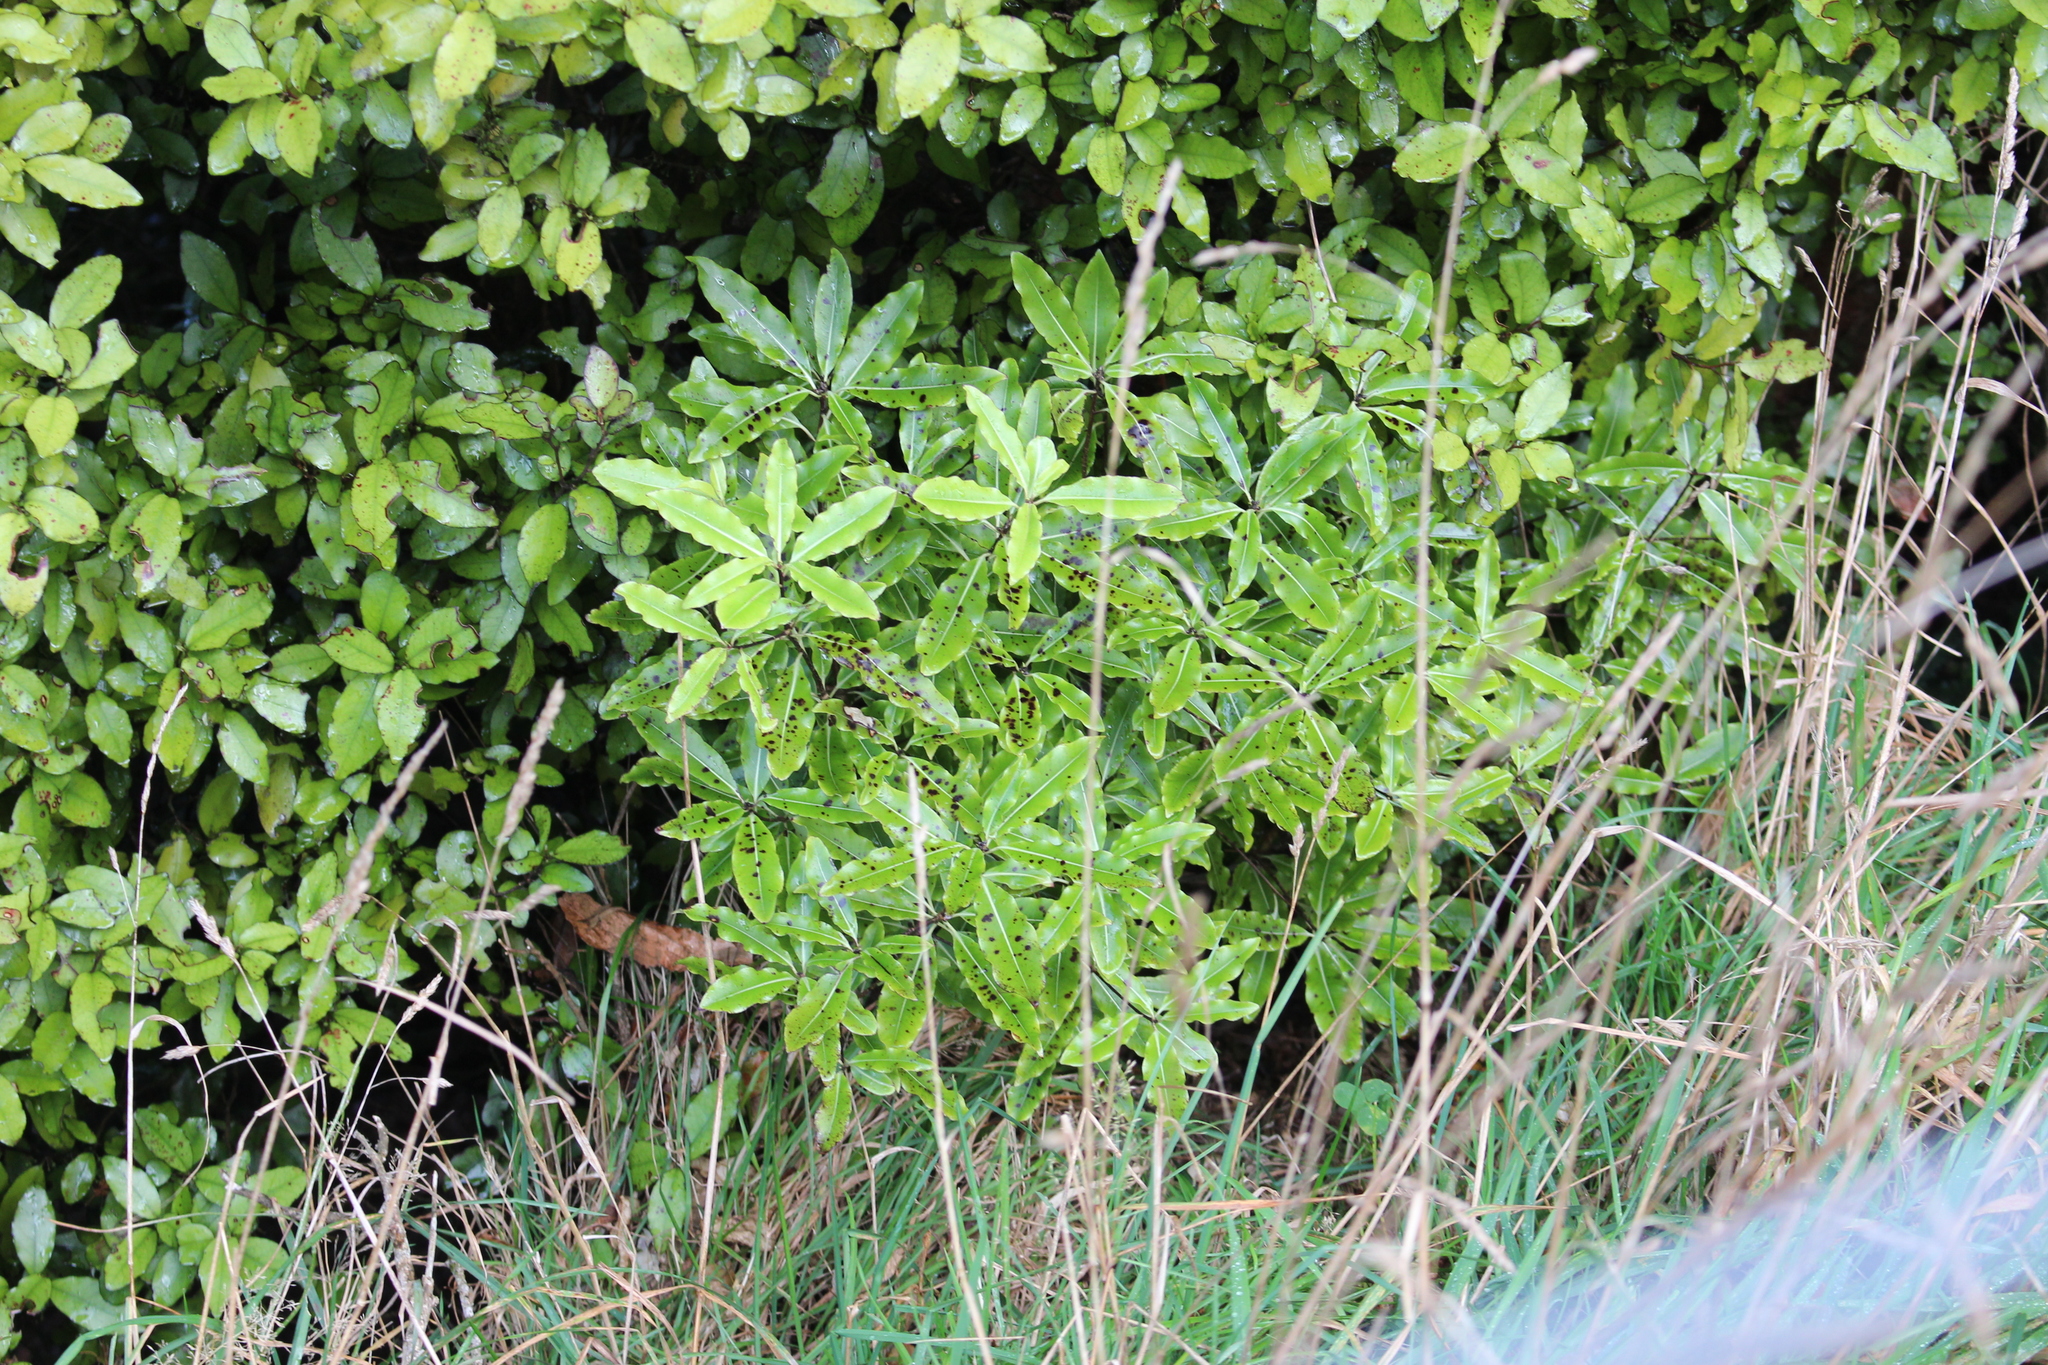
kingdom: Plantae
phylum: Tracheophyta
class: Magnoliopsida
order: Apiales
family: Pittosporaceae
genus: Pittosporum
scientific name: Pittosporum eugenioides
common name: Lemonwood
